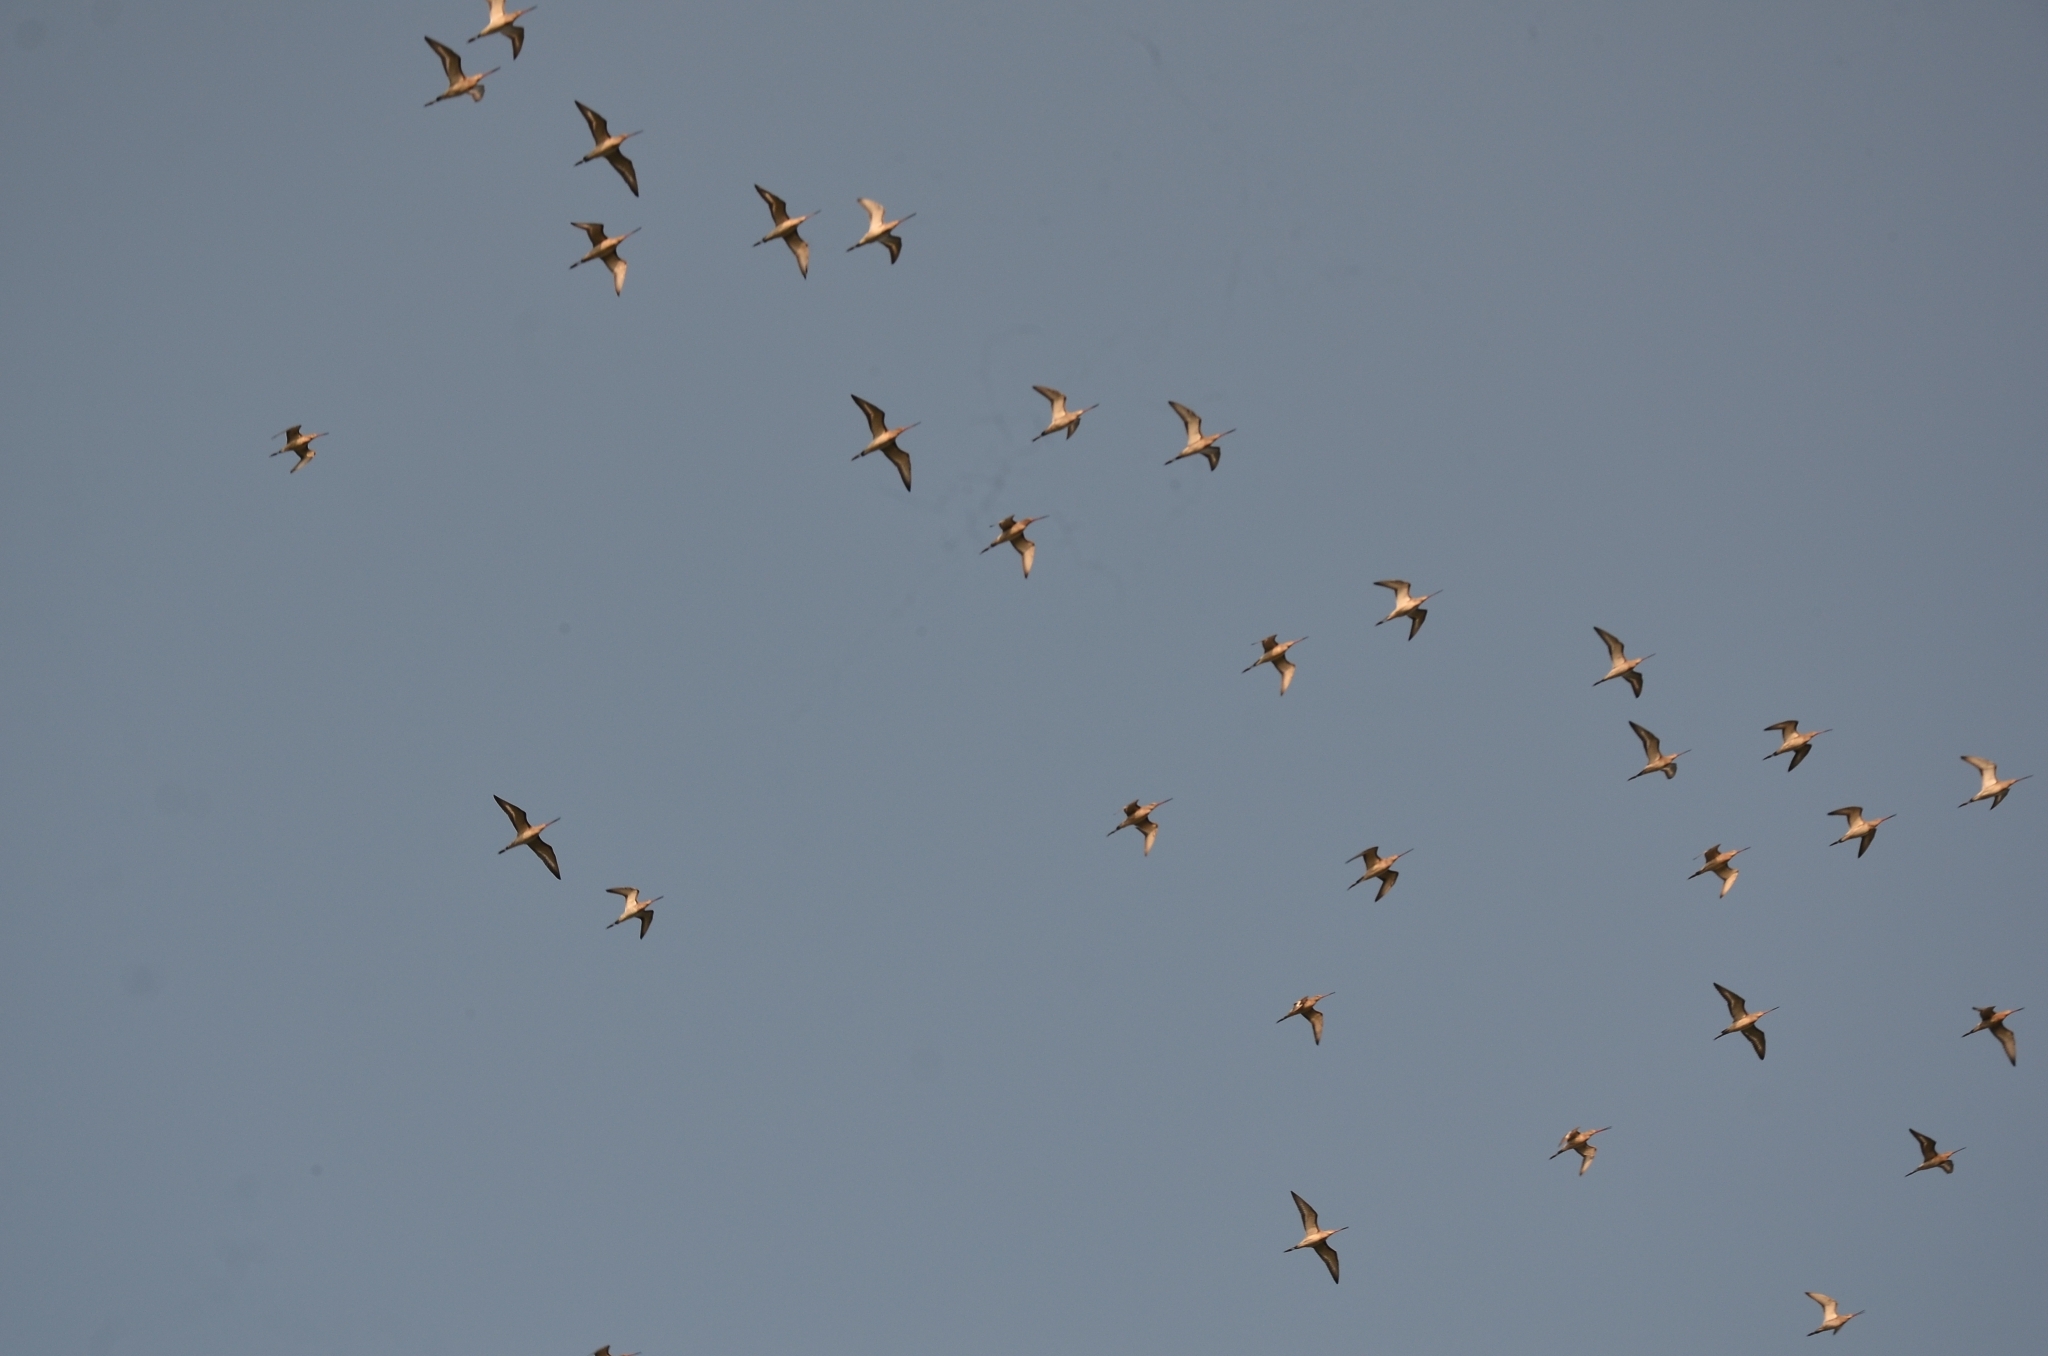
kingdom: Animalia
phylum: Chordata
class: Aves
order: Charadriiformes
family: Scolopacidae
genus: Limosa
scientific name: Limosa limosa
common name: Black-tailed godwit
